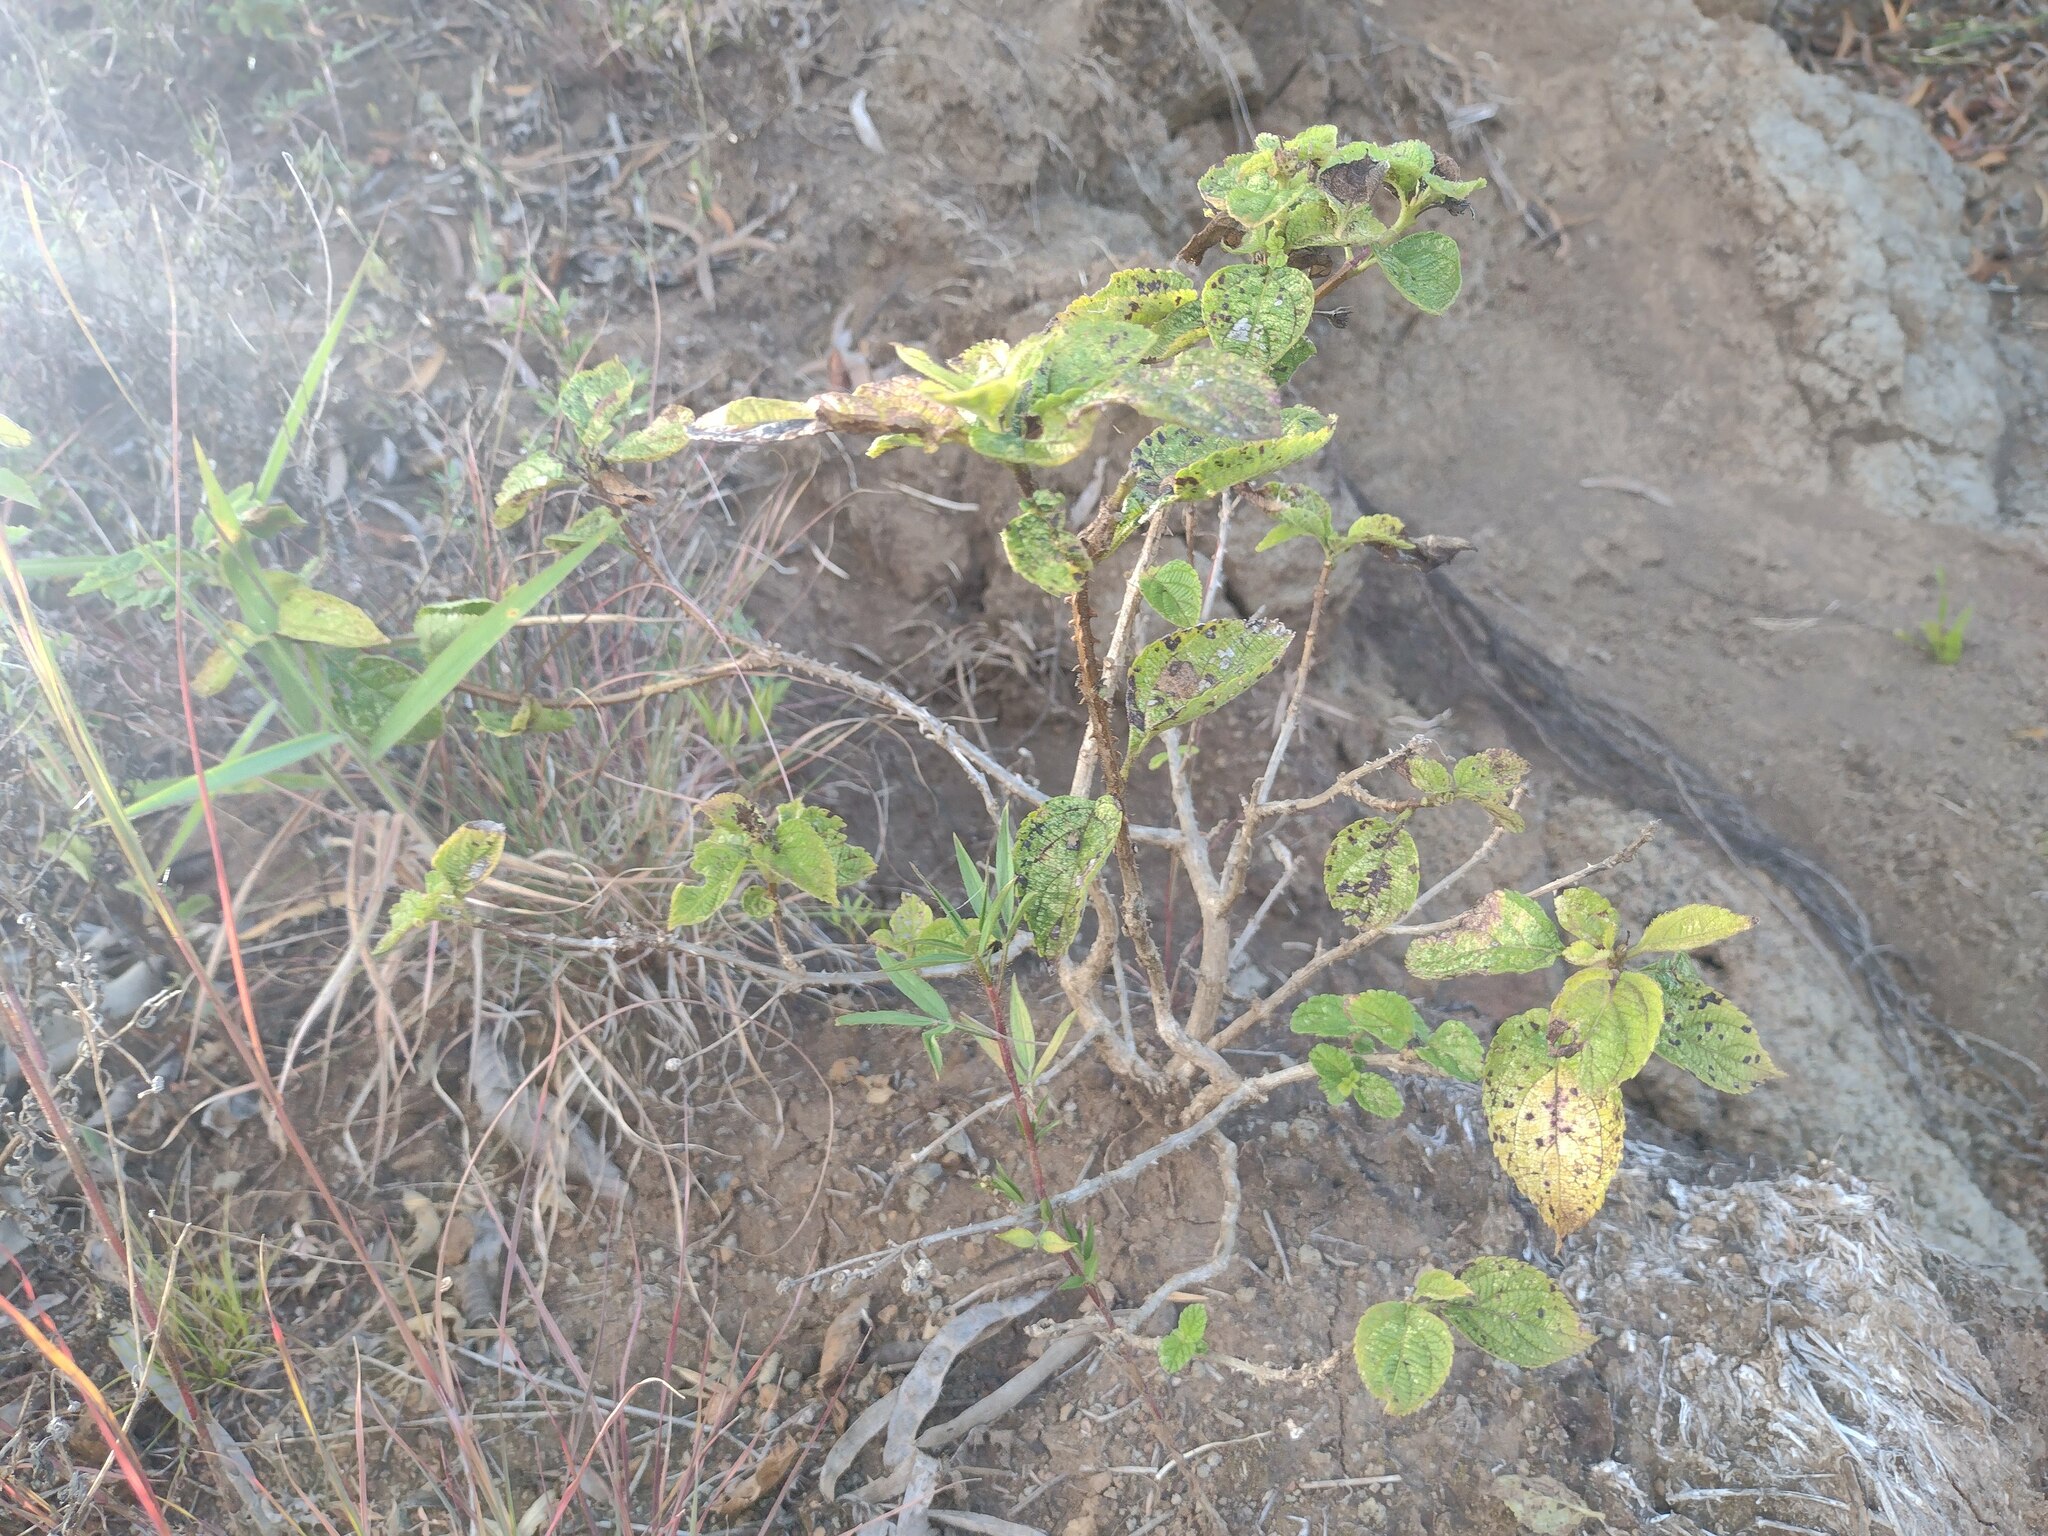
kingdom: Plantae
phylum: Tracheophyta
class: Magnoliopsida
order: Lamiales
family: Verbenaceae
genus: Lantana
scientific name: Lantana camara
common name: Lantana
